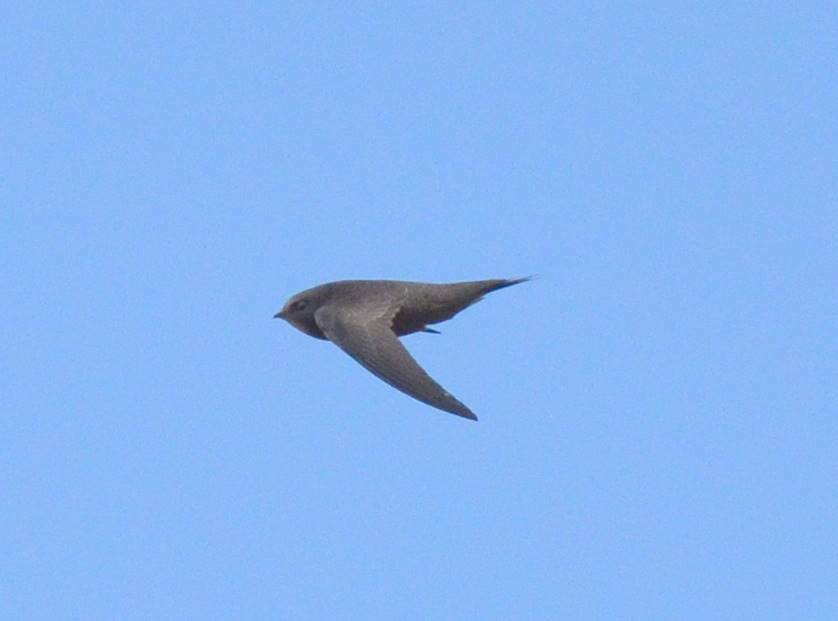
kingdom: Animalia
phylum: Chordata
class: Aves
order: Apodiformes
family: Apodidae
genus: Apus
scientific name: Apus pallidus
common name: Pallid swift
